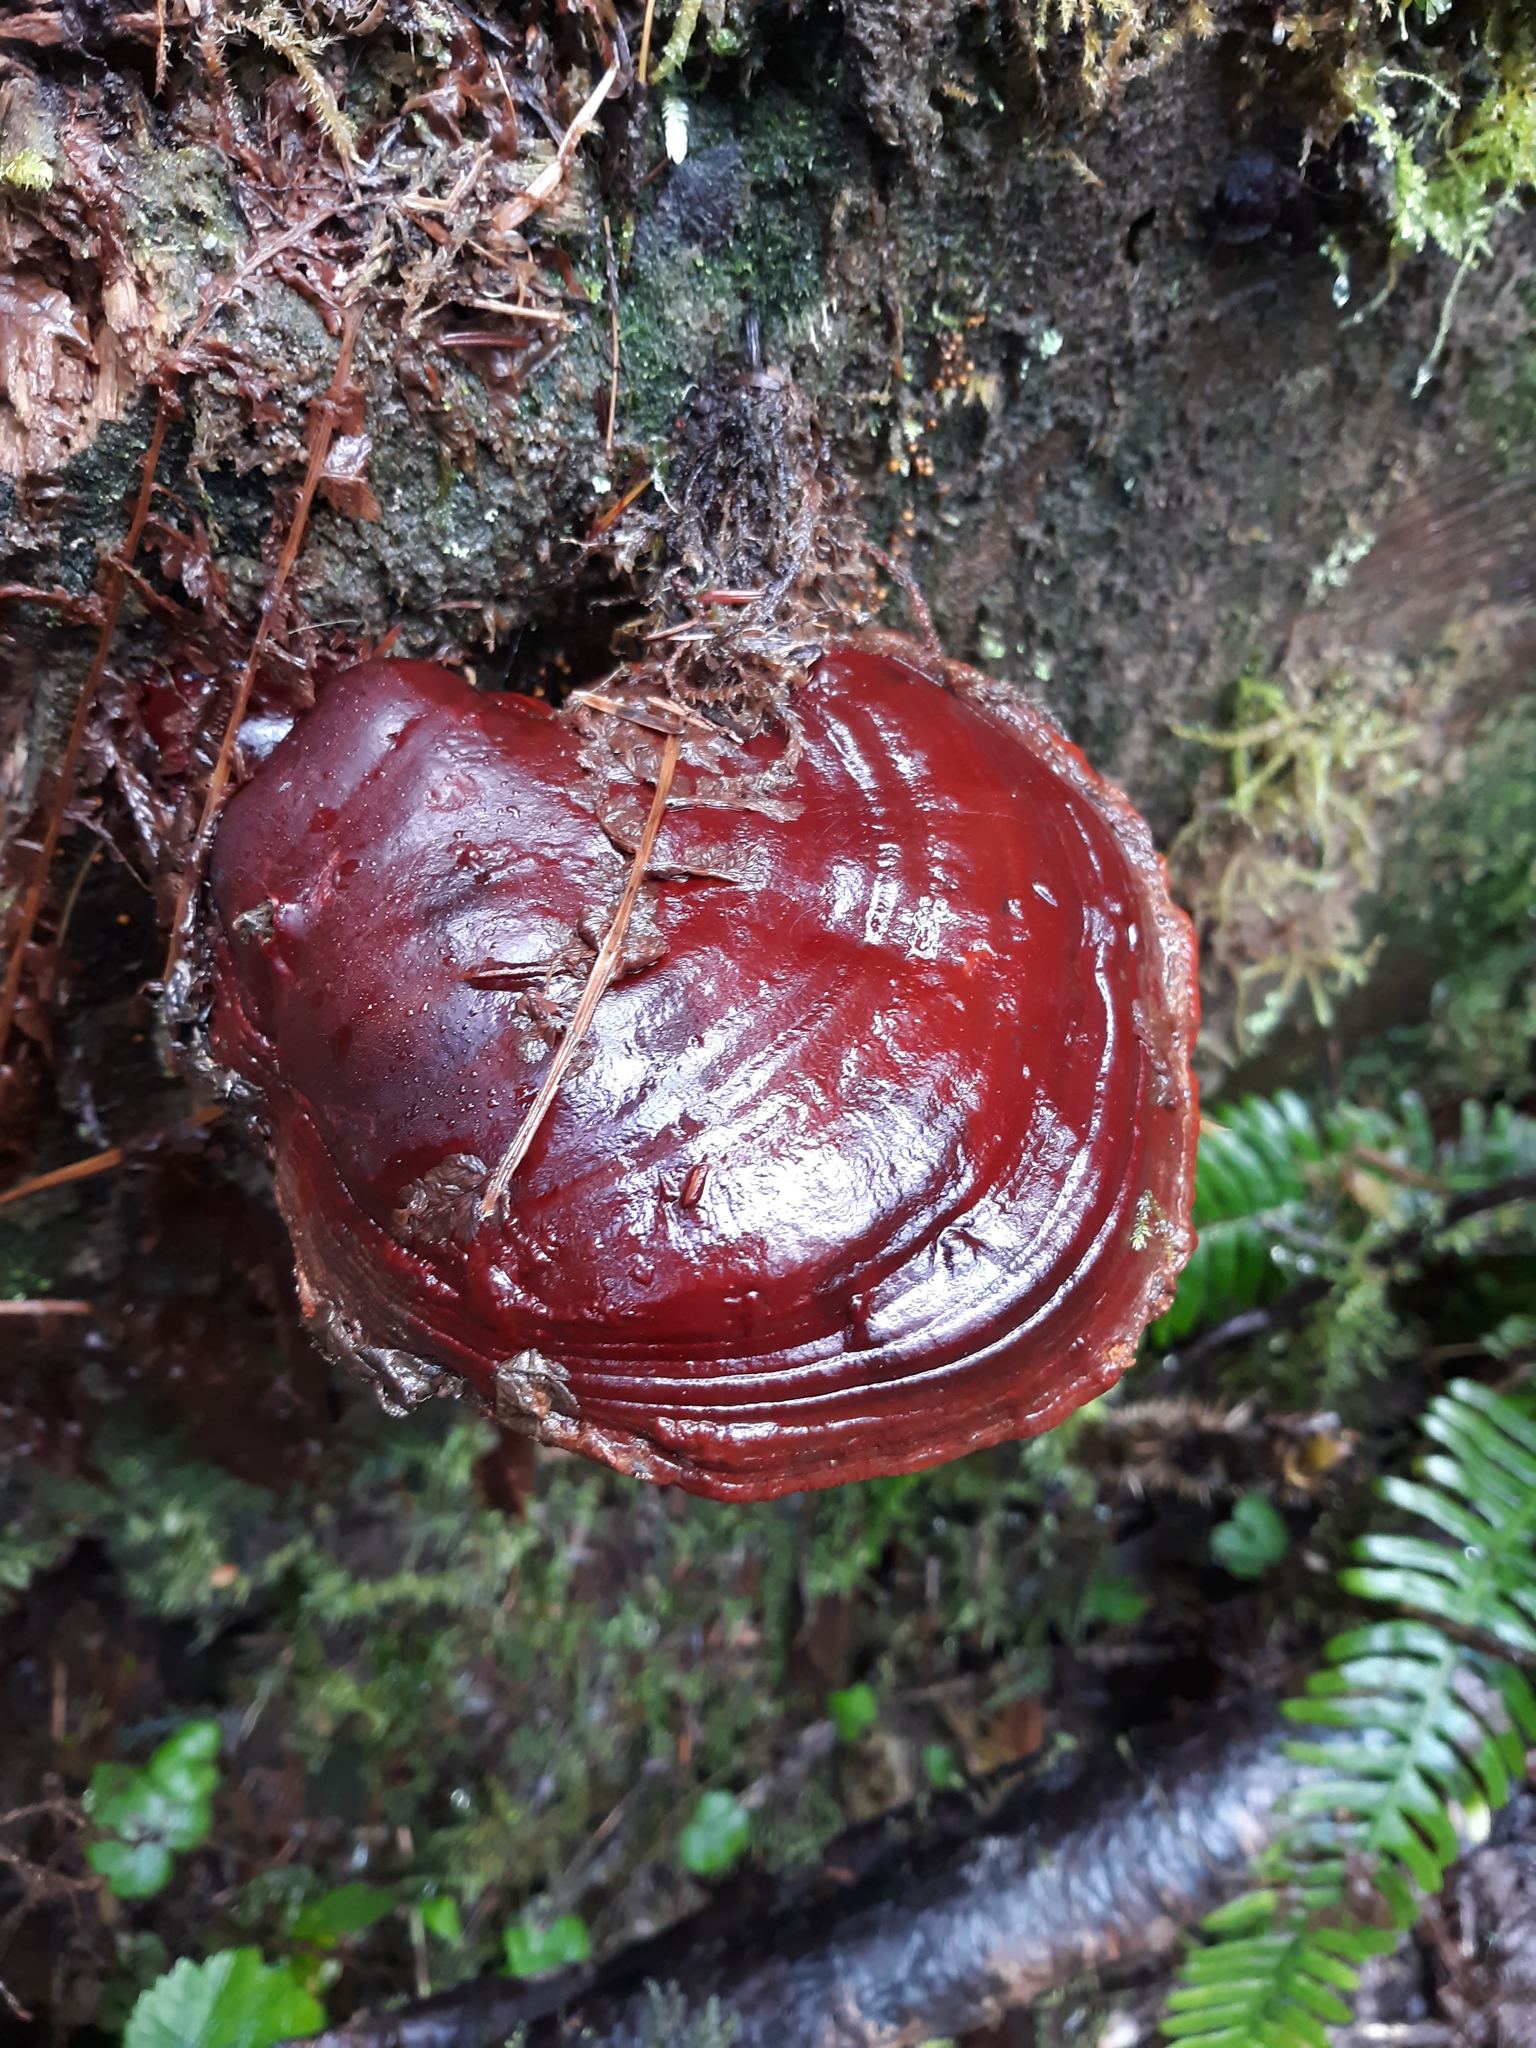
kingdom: Fungi
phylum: Basidiomycota
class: Agaricomycetes
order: Polyporales
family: Polyporaceae
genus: Ganoderma
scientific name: Ganoderma oregonense
